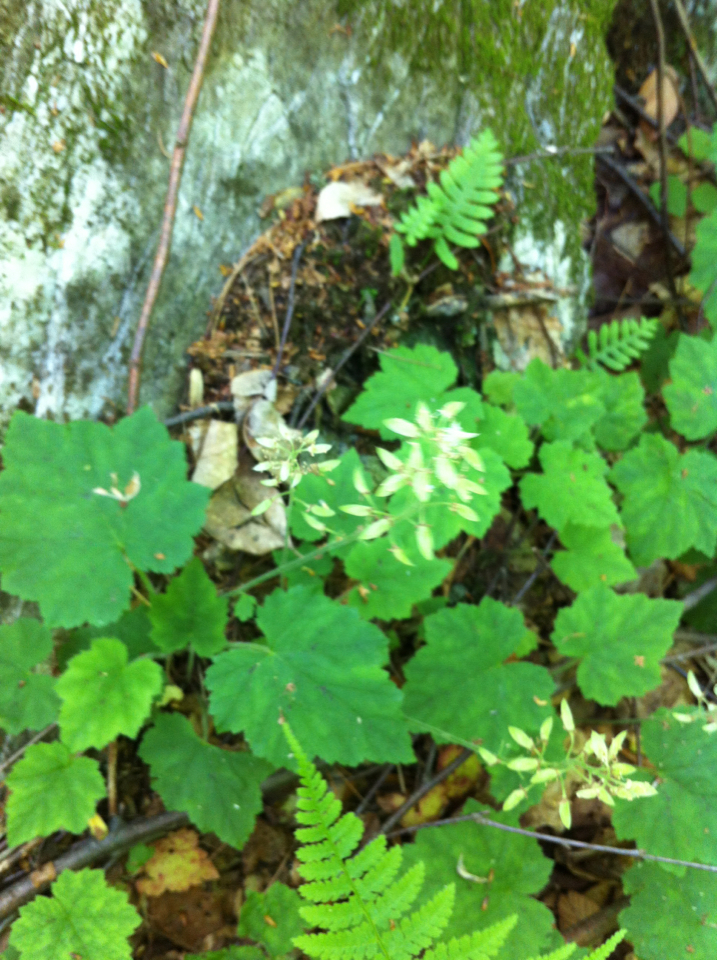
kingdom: Plantae
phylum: Tracheophyta
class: Magnoliopsida
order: Saxifragales
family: Saxifragaceae
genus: Tiarella
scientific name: Tiarella stolonifera
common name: Stoloniferous foamflower
